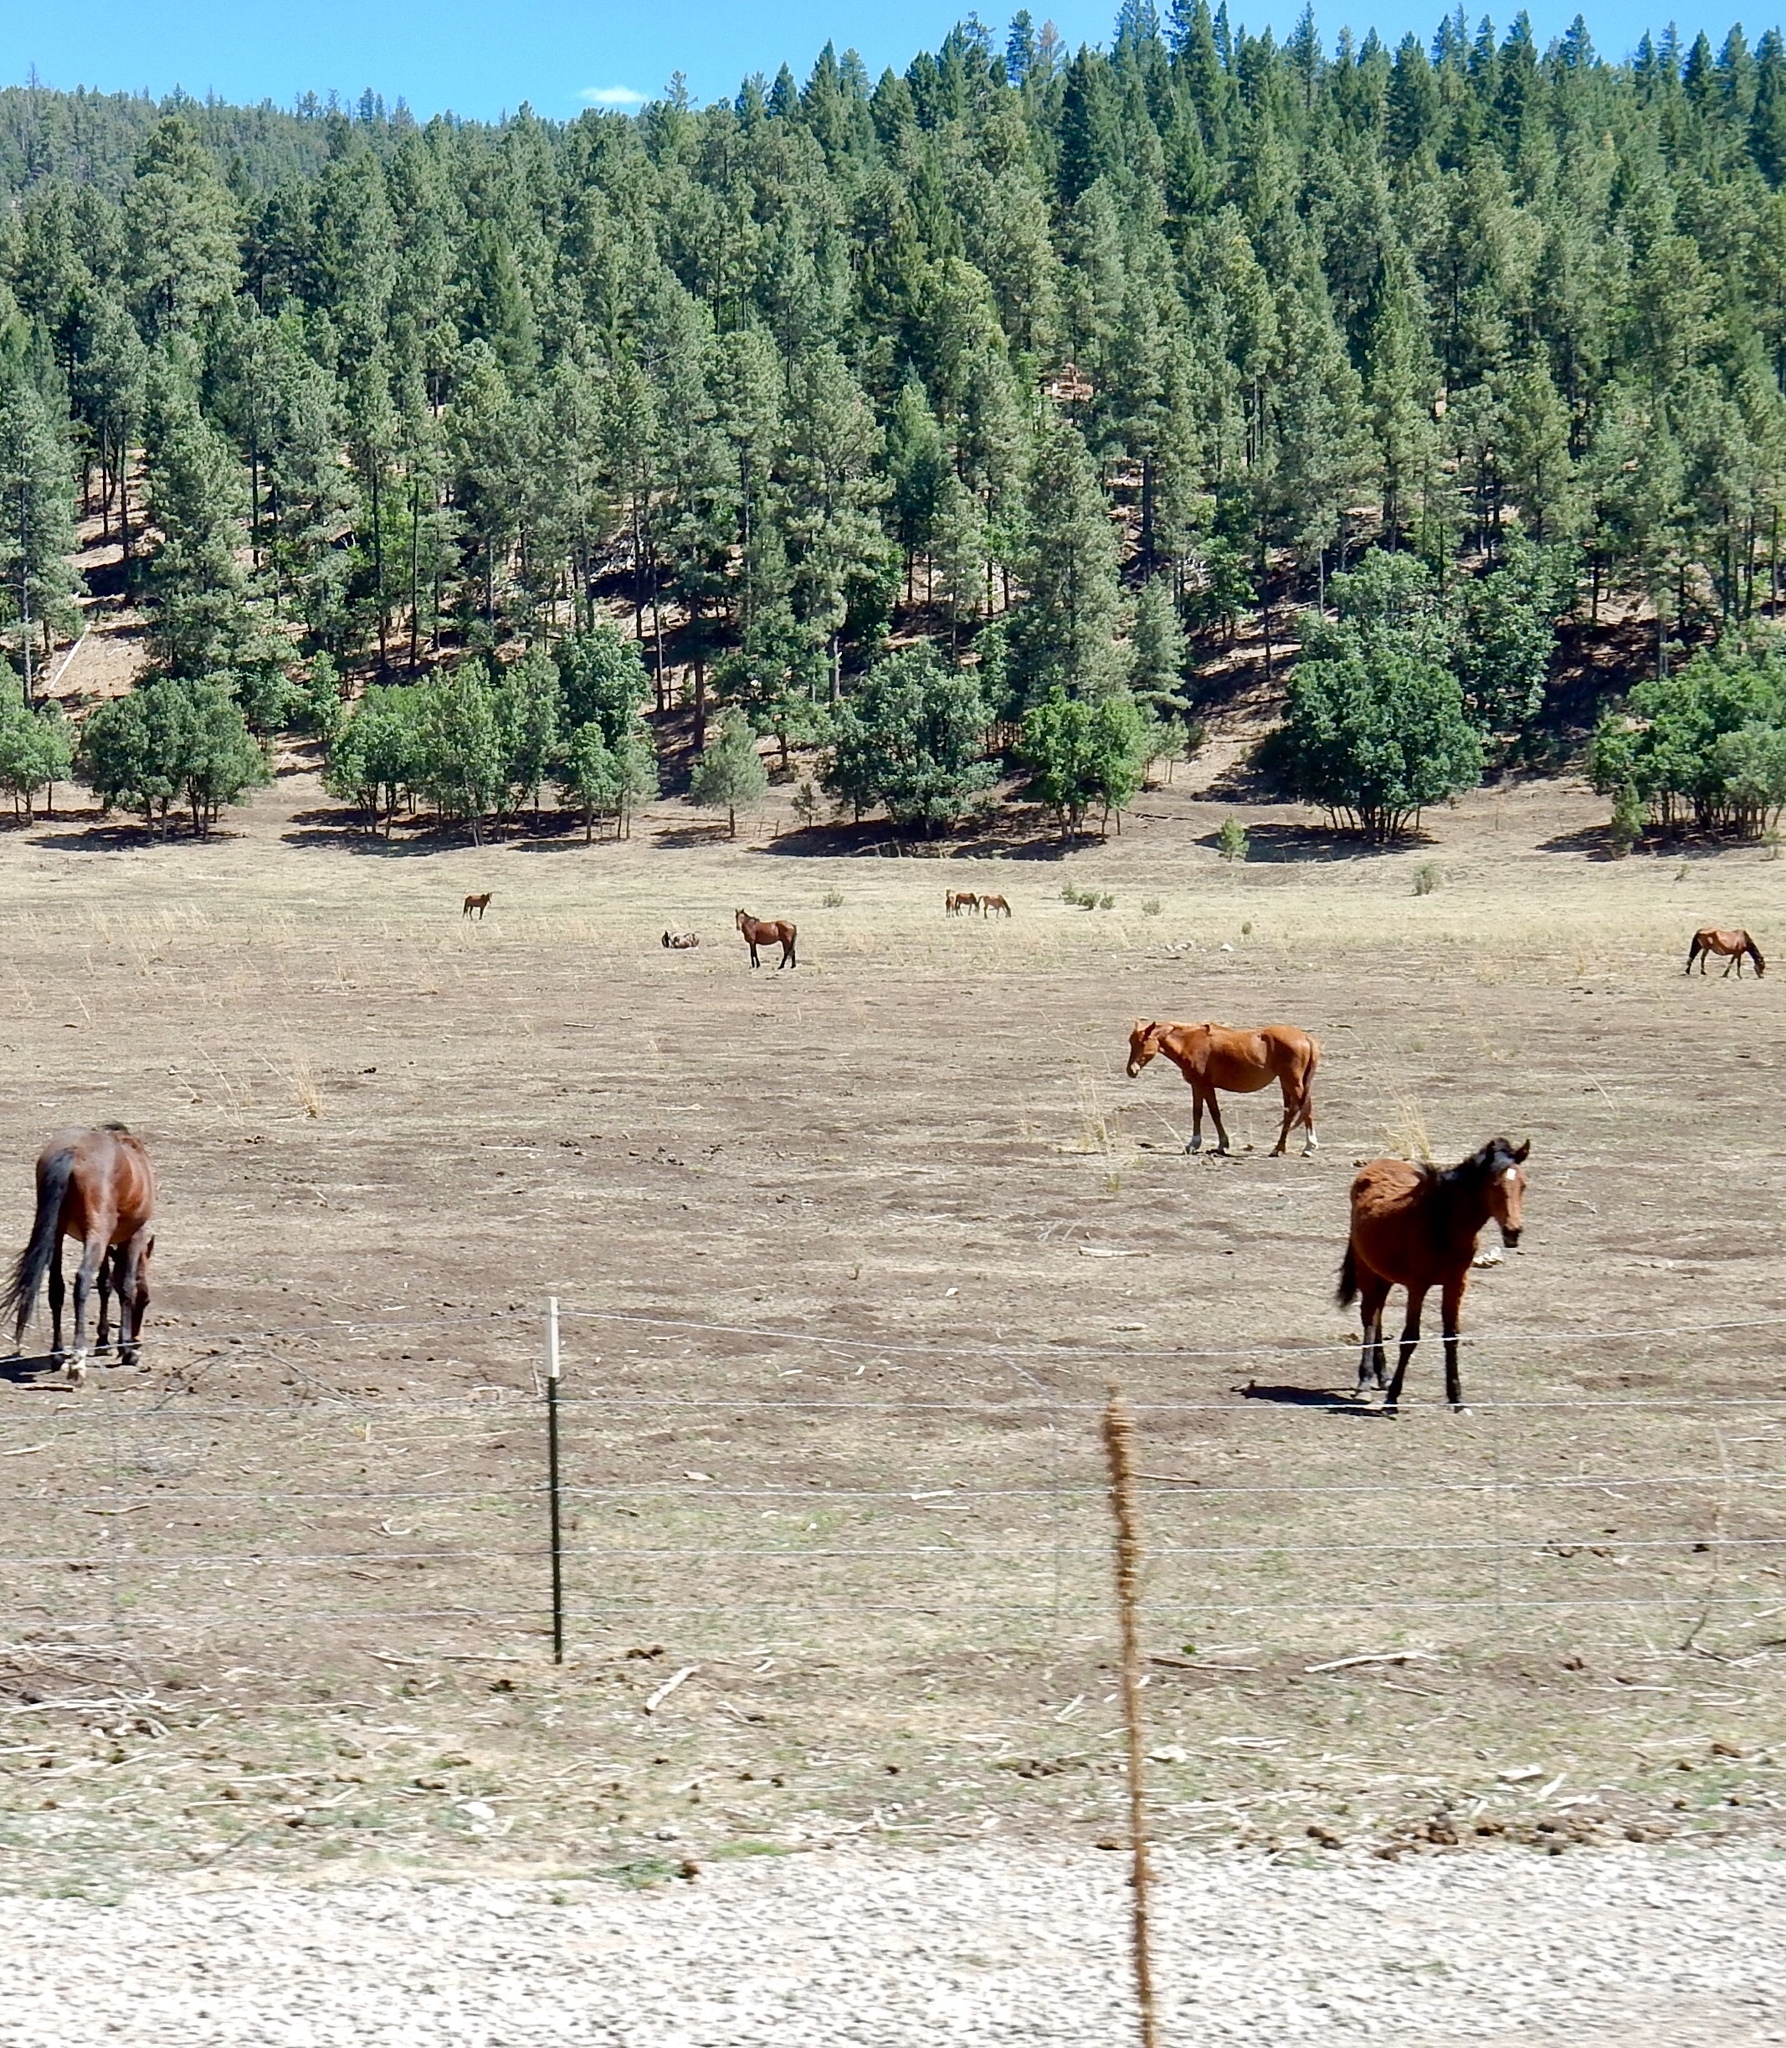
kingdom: Animalia
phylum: Chordata
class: Mammalia
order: Perissodactyla
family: Equidae
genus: Equus
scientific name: Equus caballus
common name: Horse
